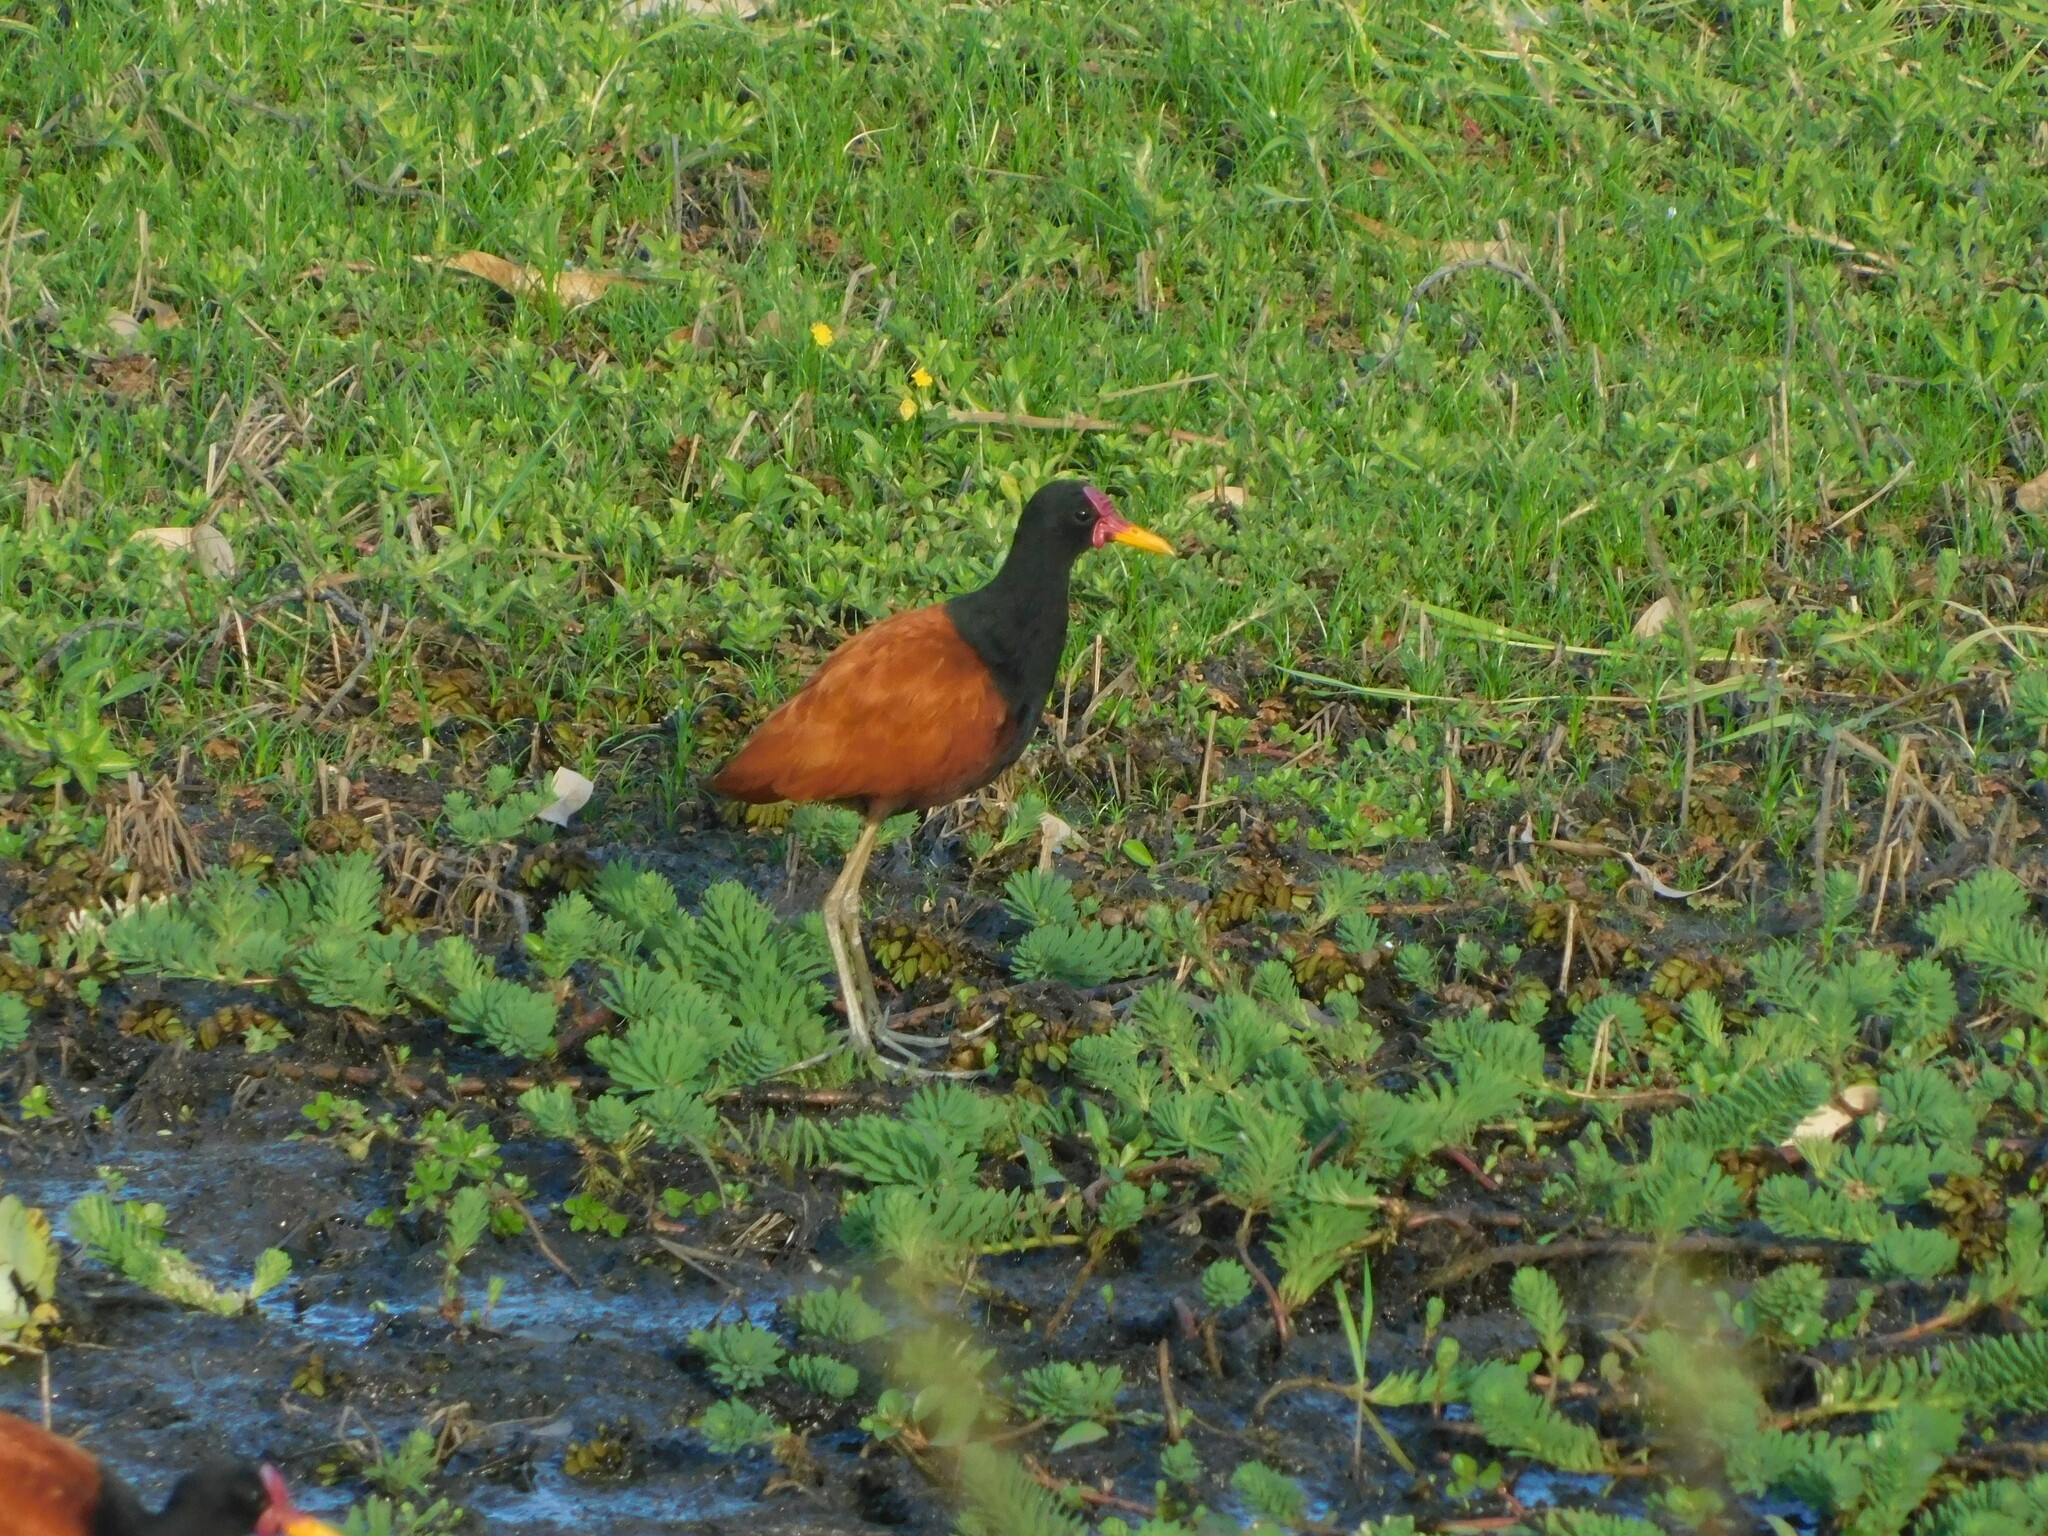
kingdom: Animalia
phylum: Chordata
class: Aves
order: Charadriiformes
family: Jacanidae
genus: Jacana
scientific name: Jacana jacana
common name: Wattled jacana
